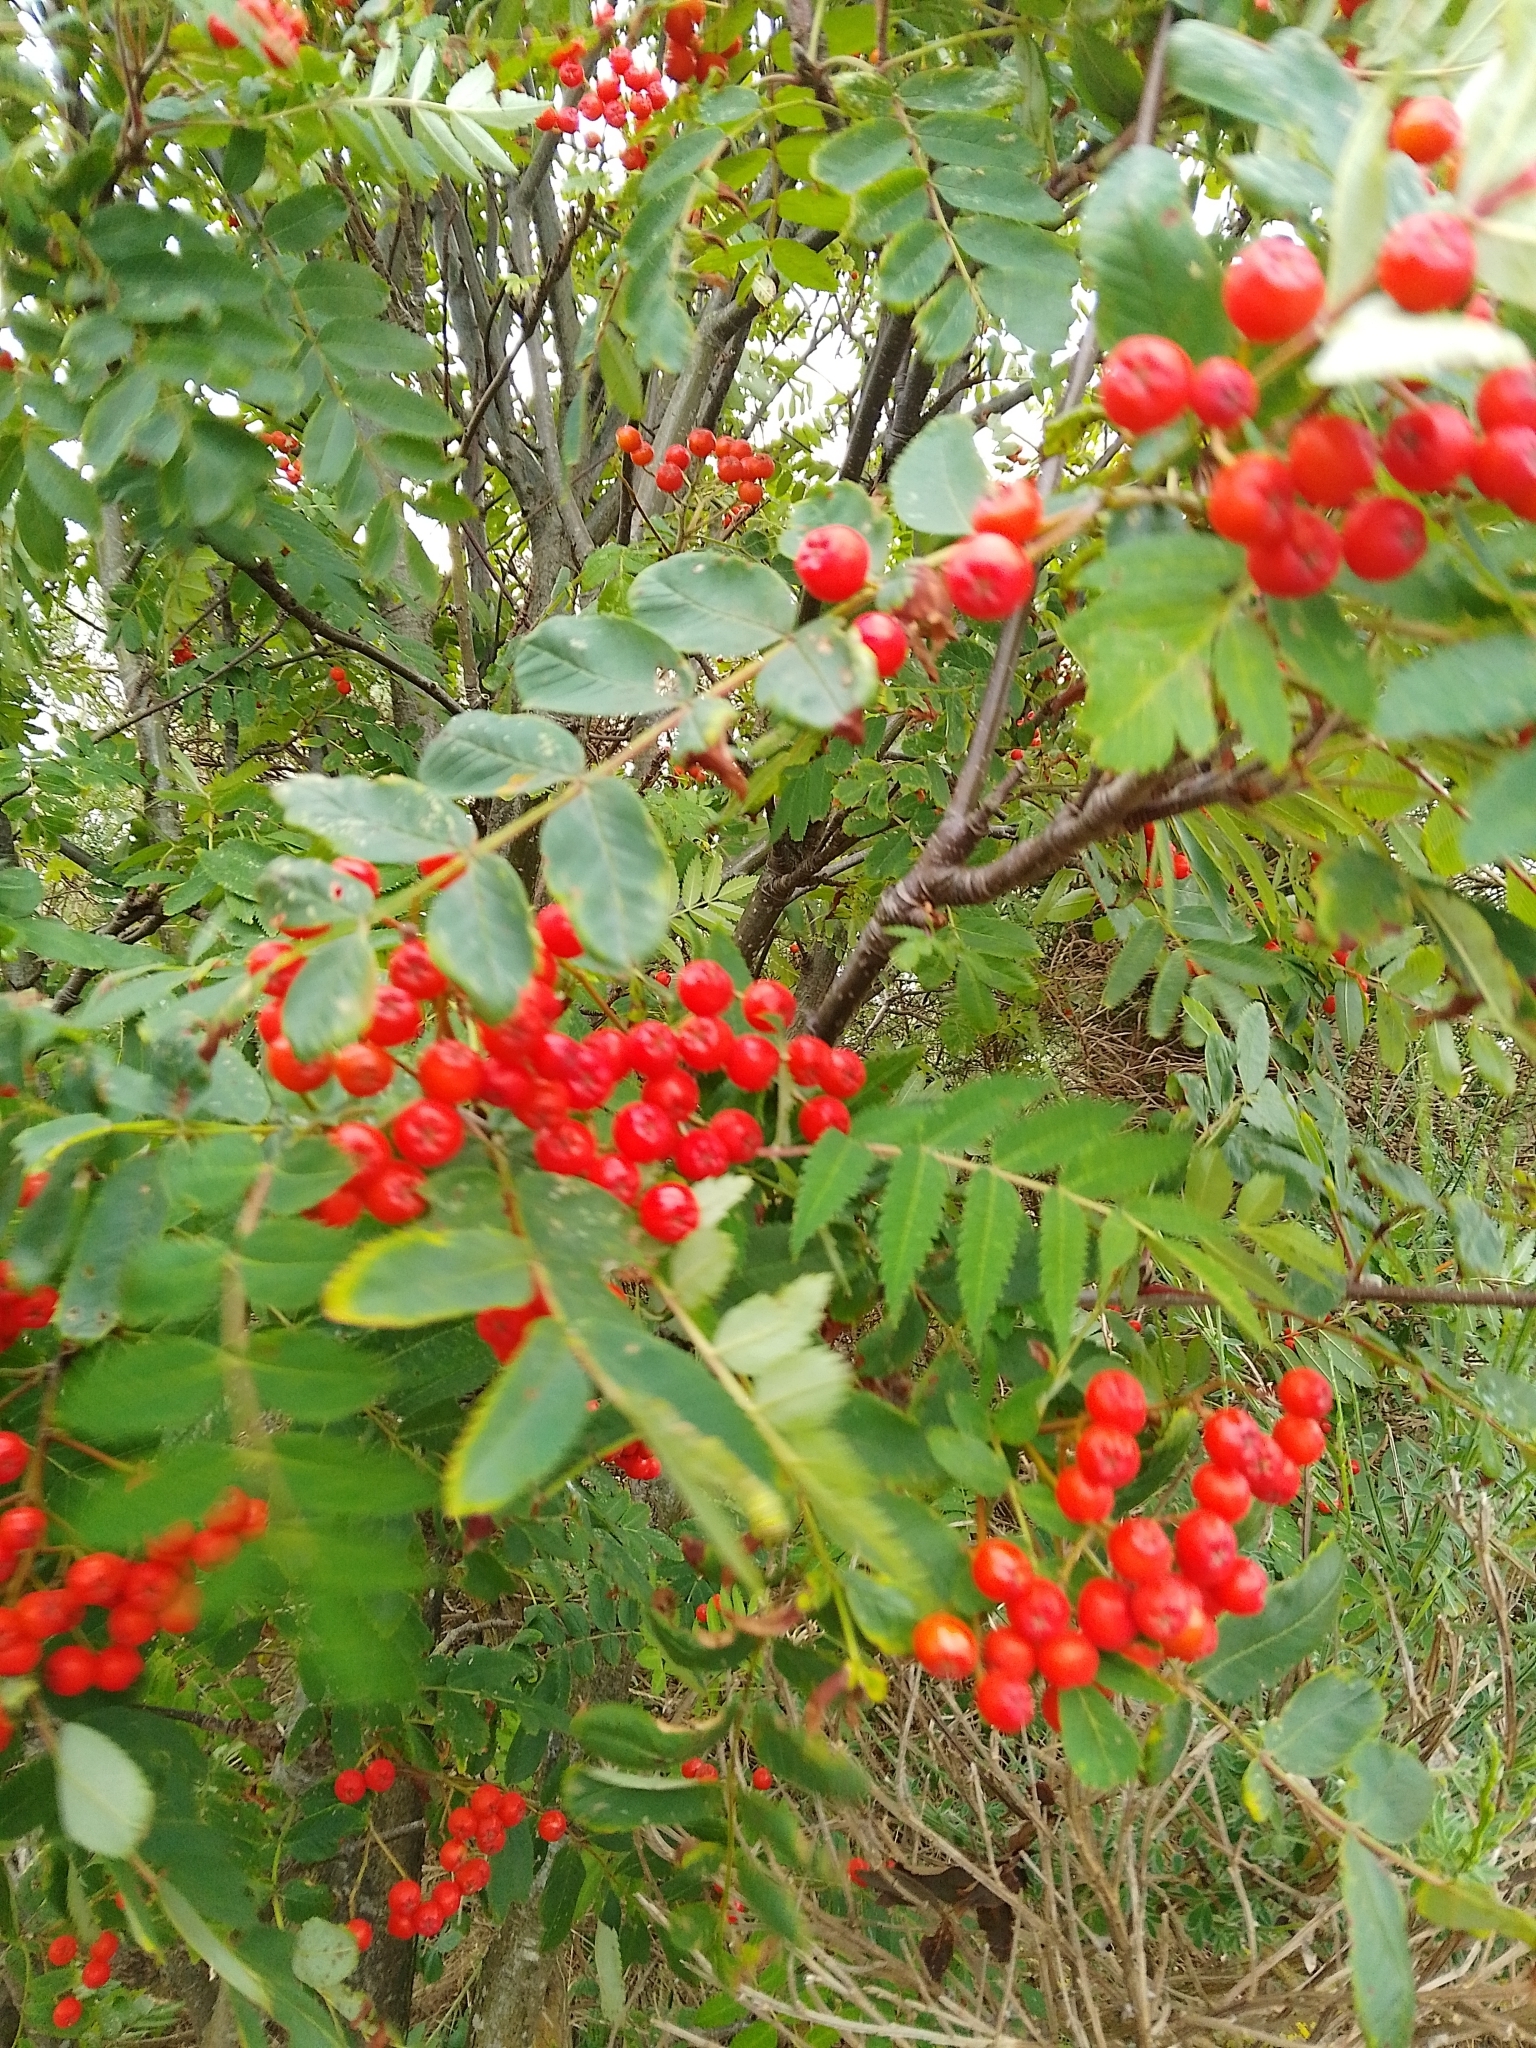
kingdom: Plantae
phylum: Tracheophyta
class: Magnoliopsida
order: Rosales
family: Rosaceae
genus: Sorbus
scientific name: Sorbus aucuparia
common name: Rowan
